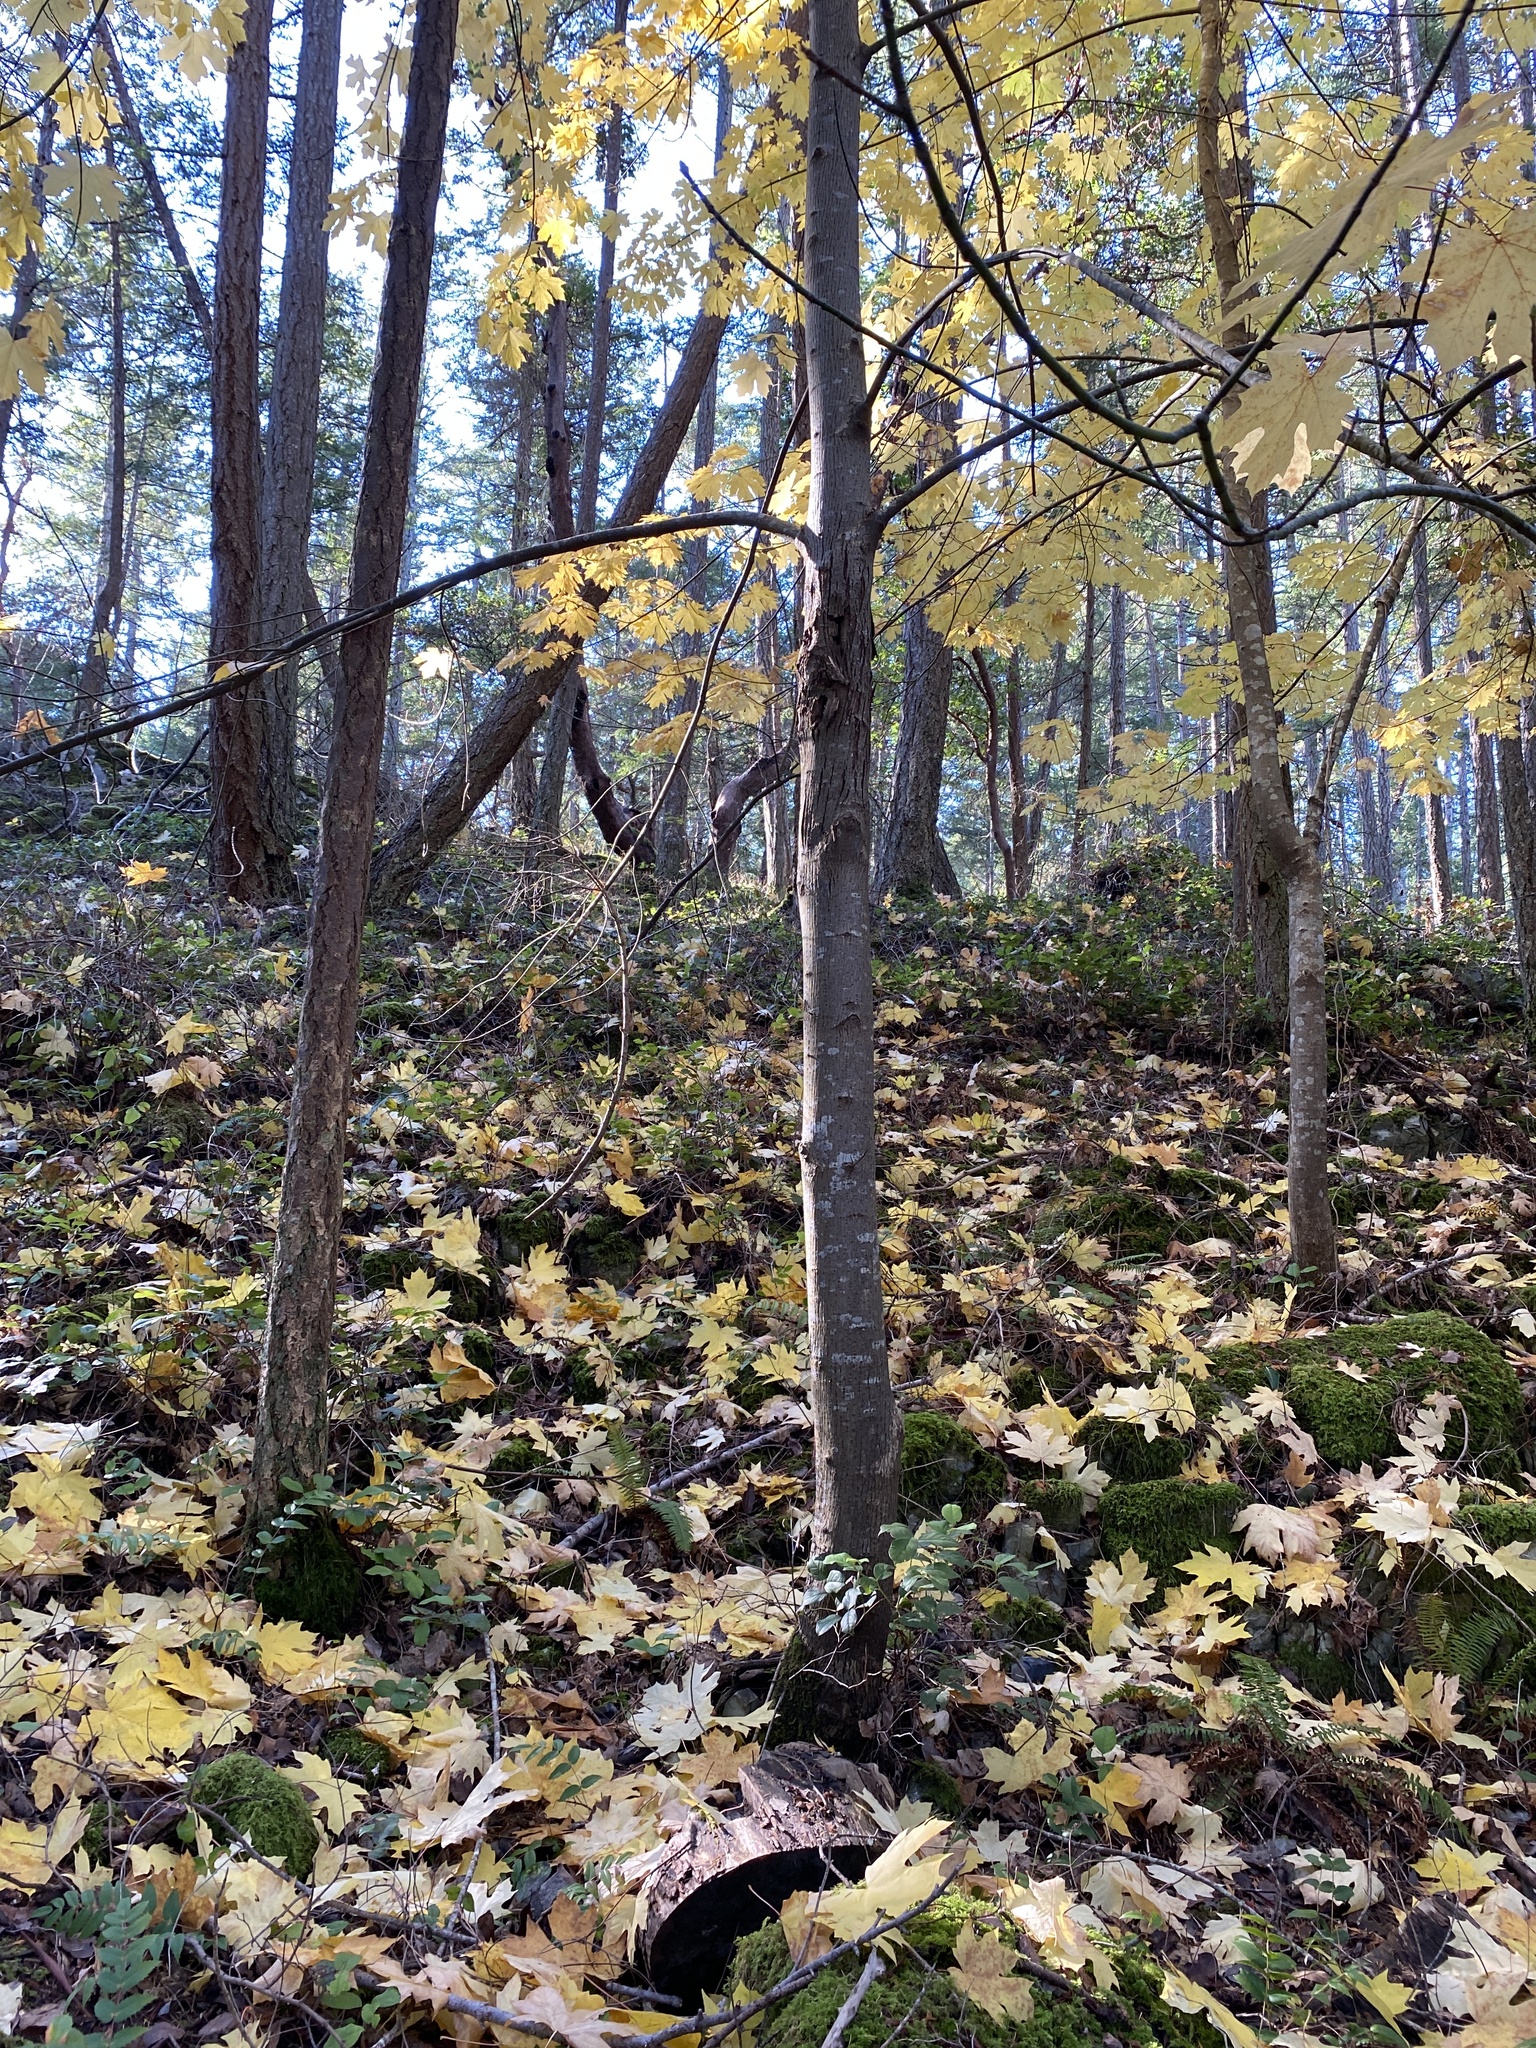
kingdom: Plantae
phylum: Tracheophyta
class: Magnoliopsida
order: Sapindales
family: Sapindaceae
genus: Acer
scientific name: Acer macrophyllum
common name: Oregon maple
